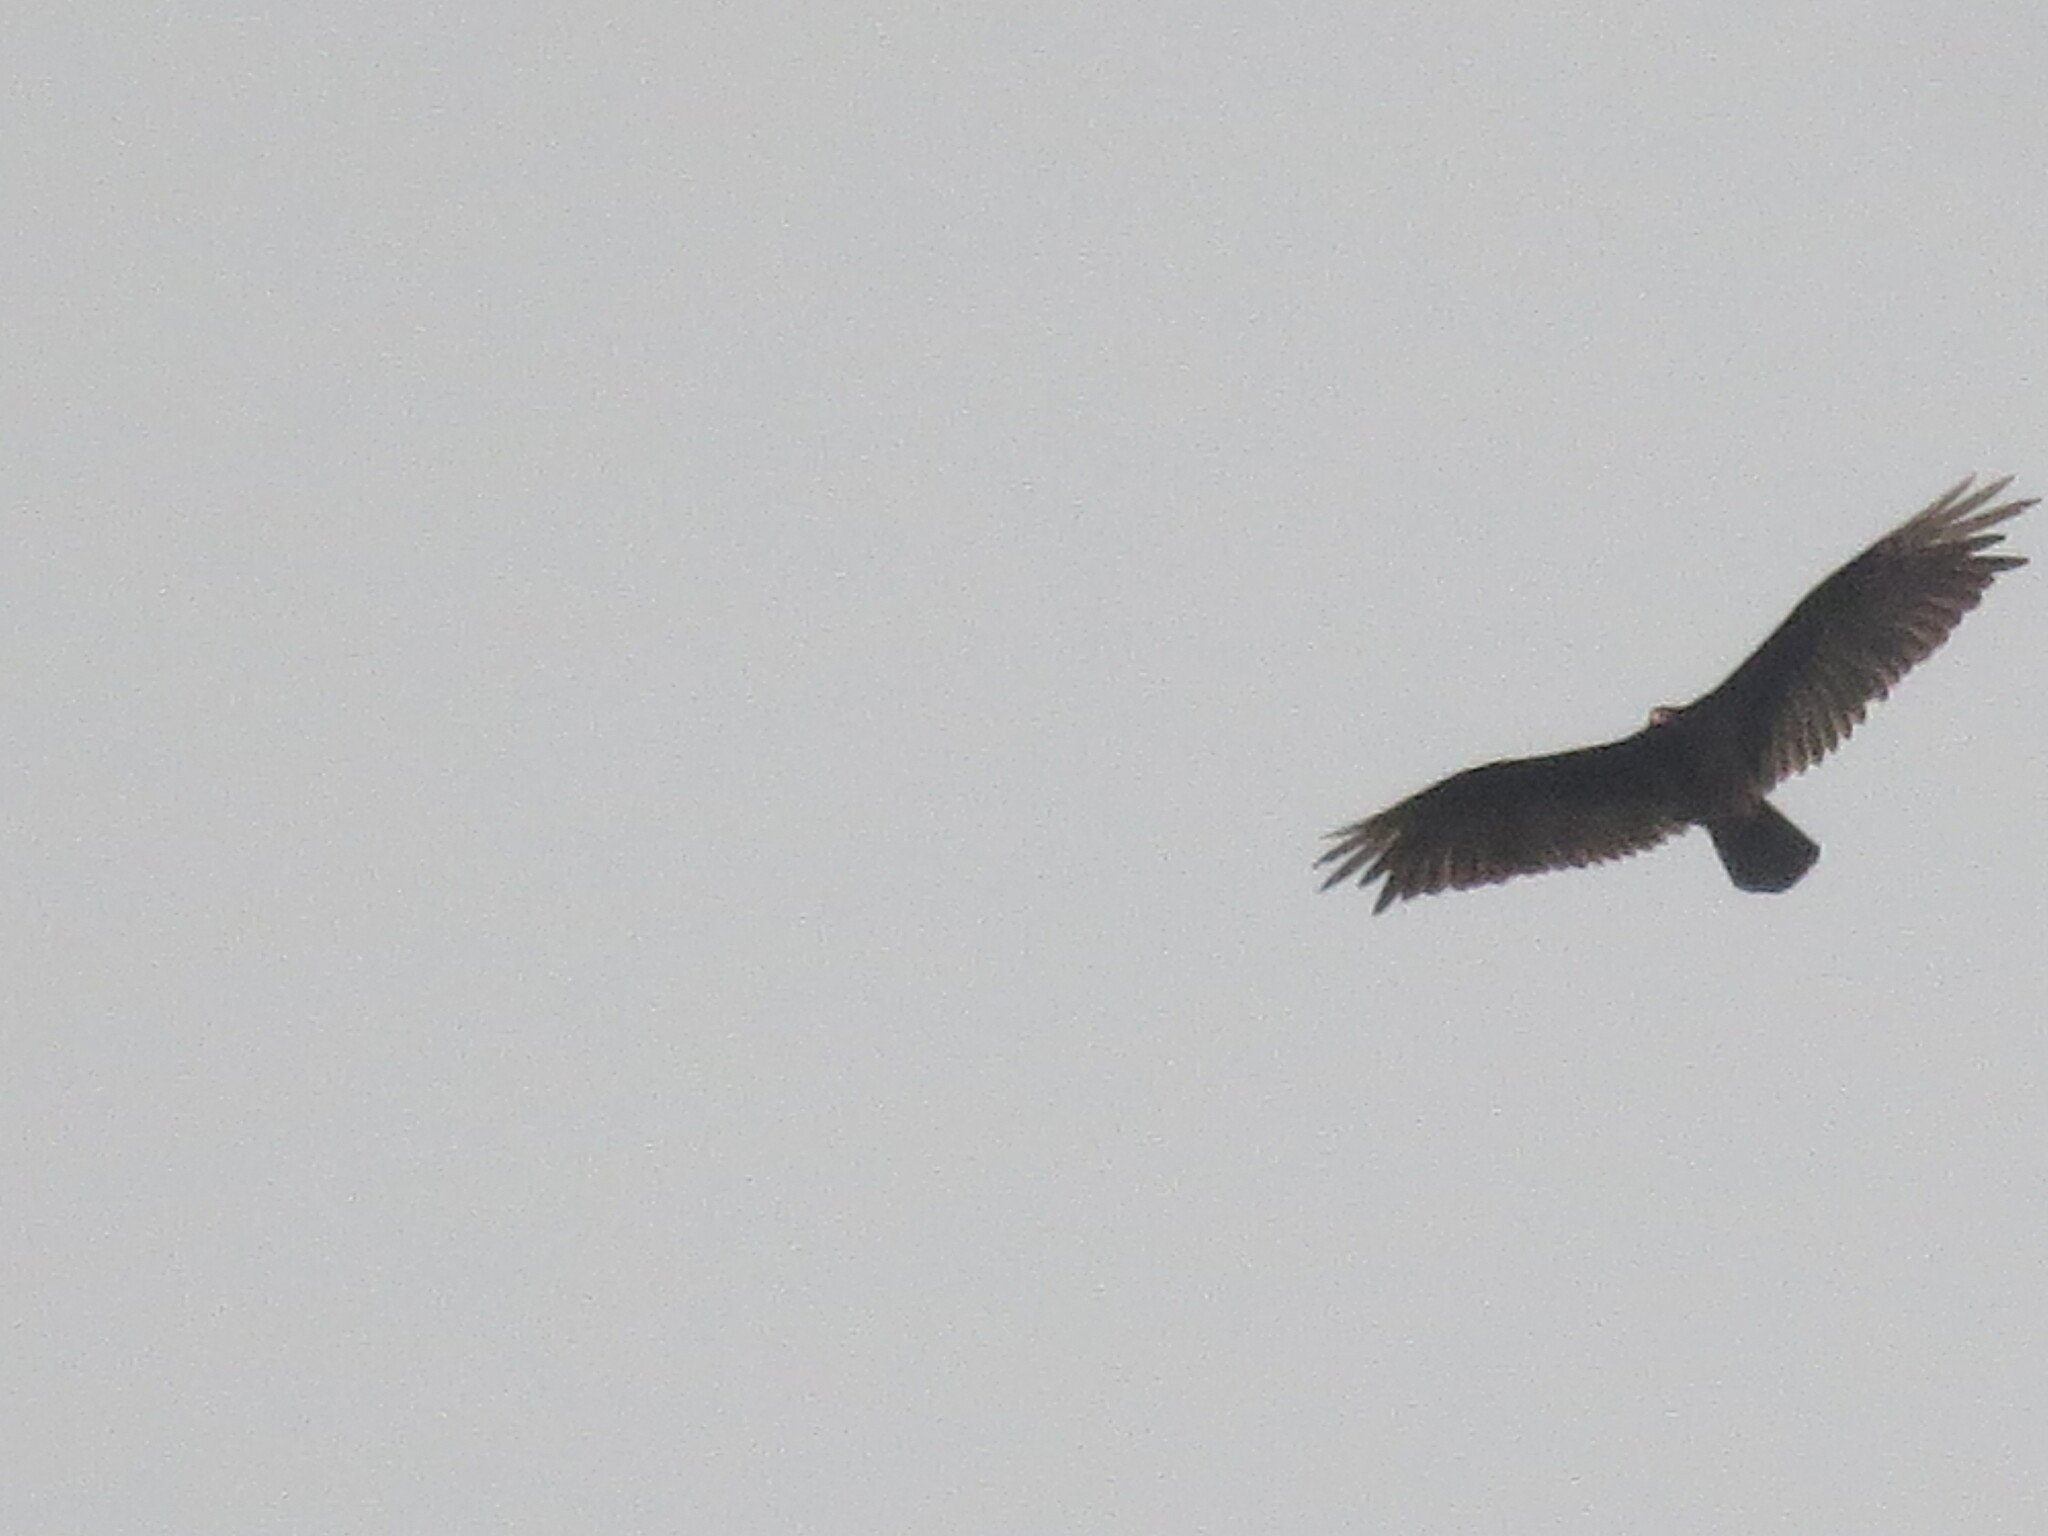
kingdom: Animalia
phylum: Chordata
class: Aves
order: Accipitriformes
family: Cathartidae
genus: Cathartes
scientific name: Cathartes aura
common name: Turkey vulture
